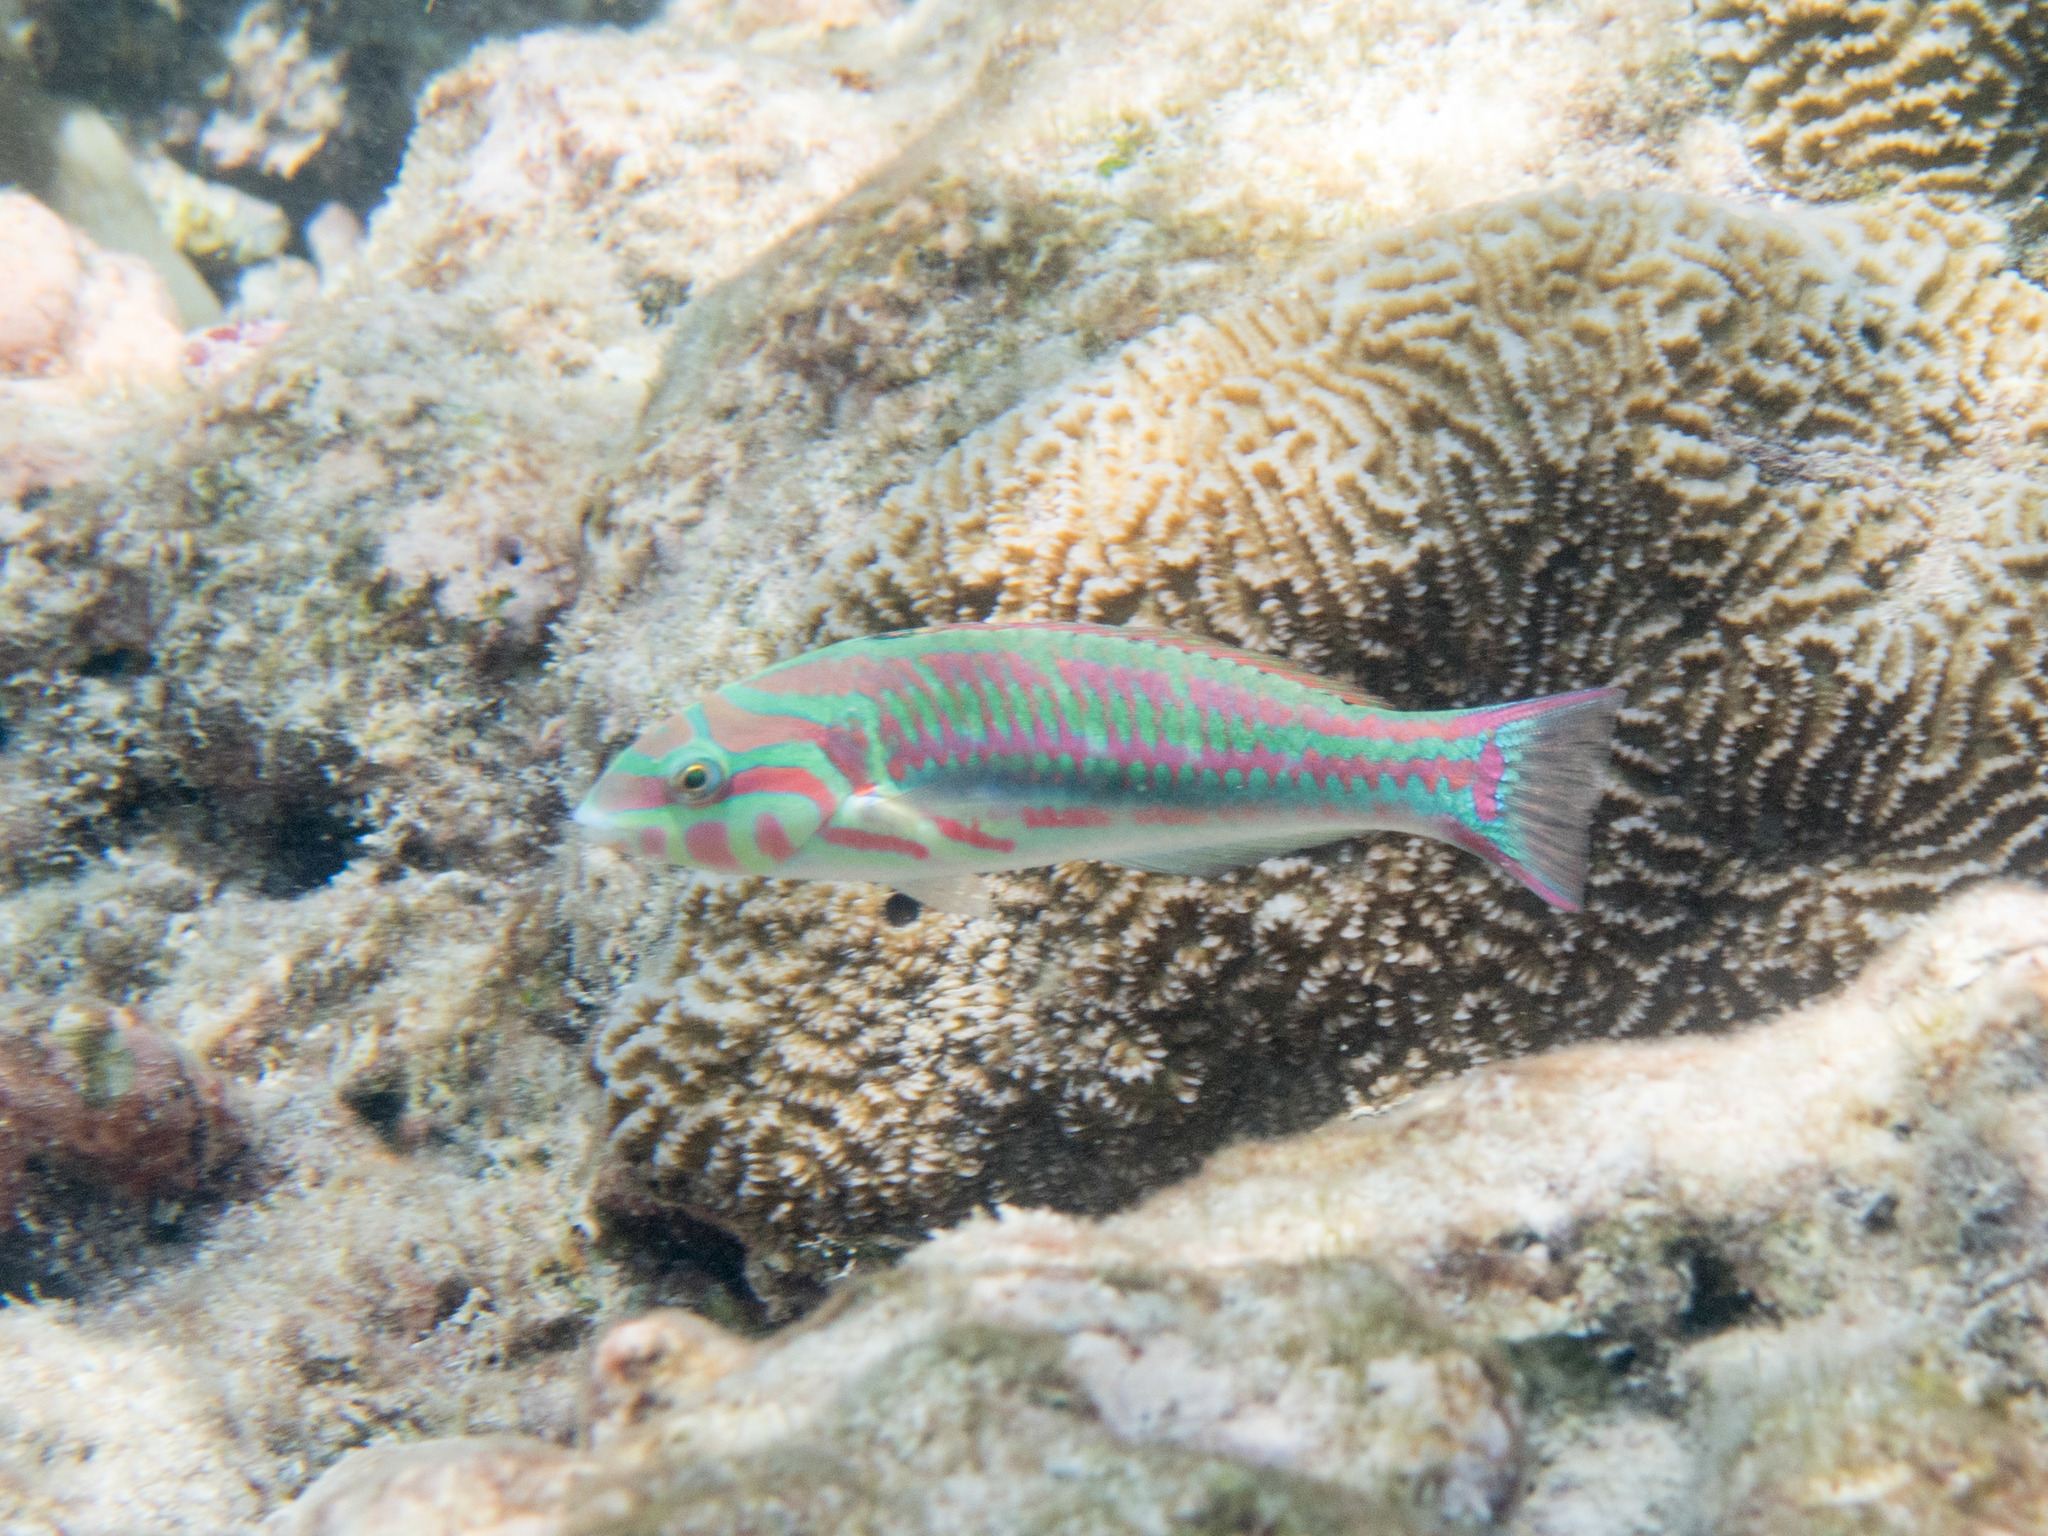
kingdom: Animalia
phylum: Chordata
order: Perciformes
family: Labridae
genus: Thalassoma
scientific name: Thalassoma quinquevittatum
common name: Five striped surge wrasse
